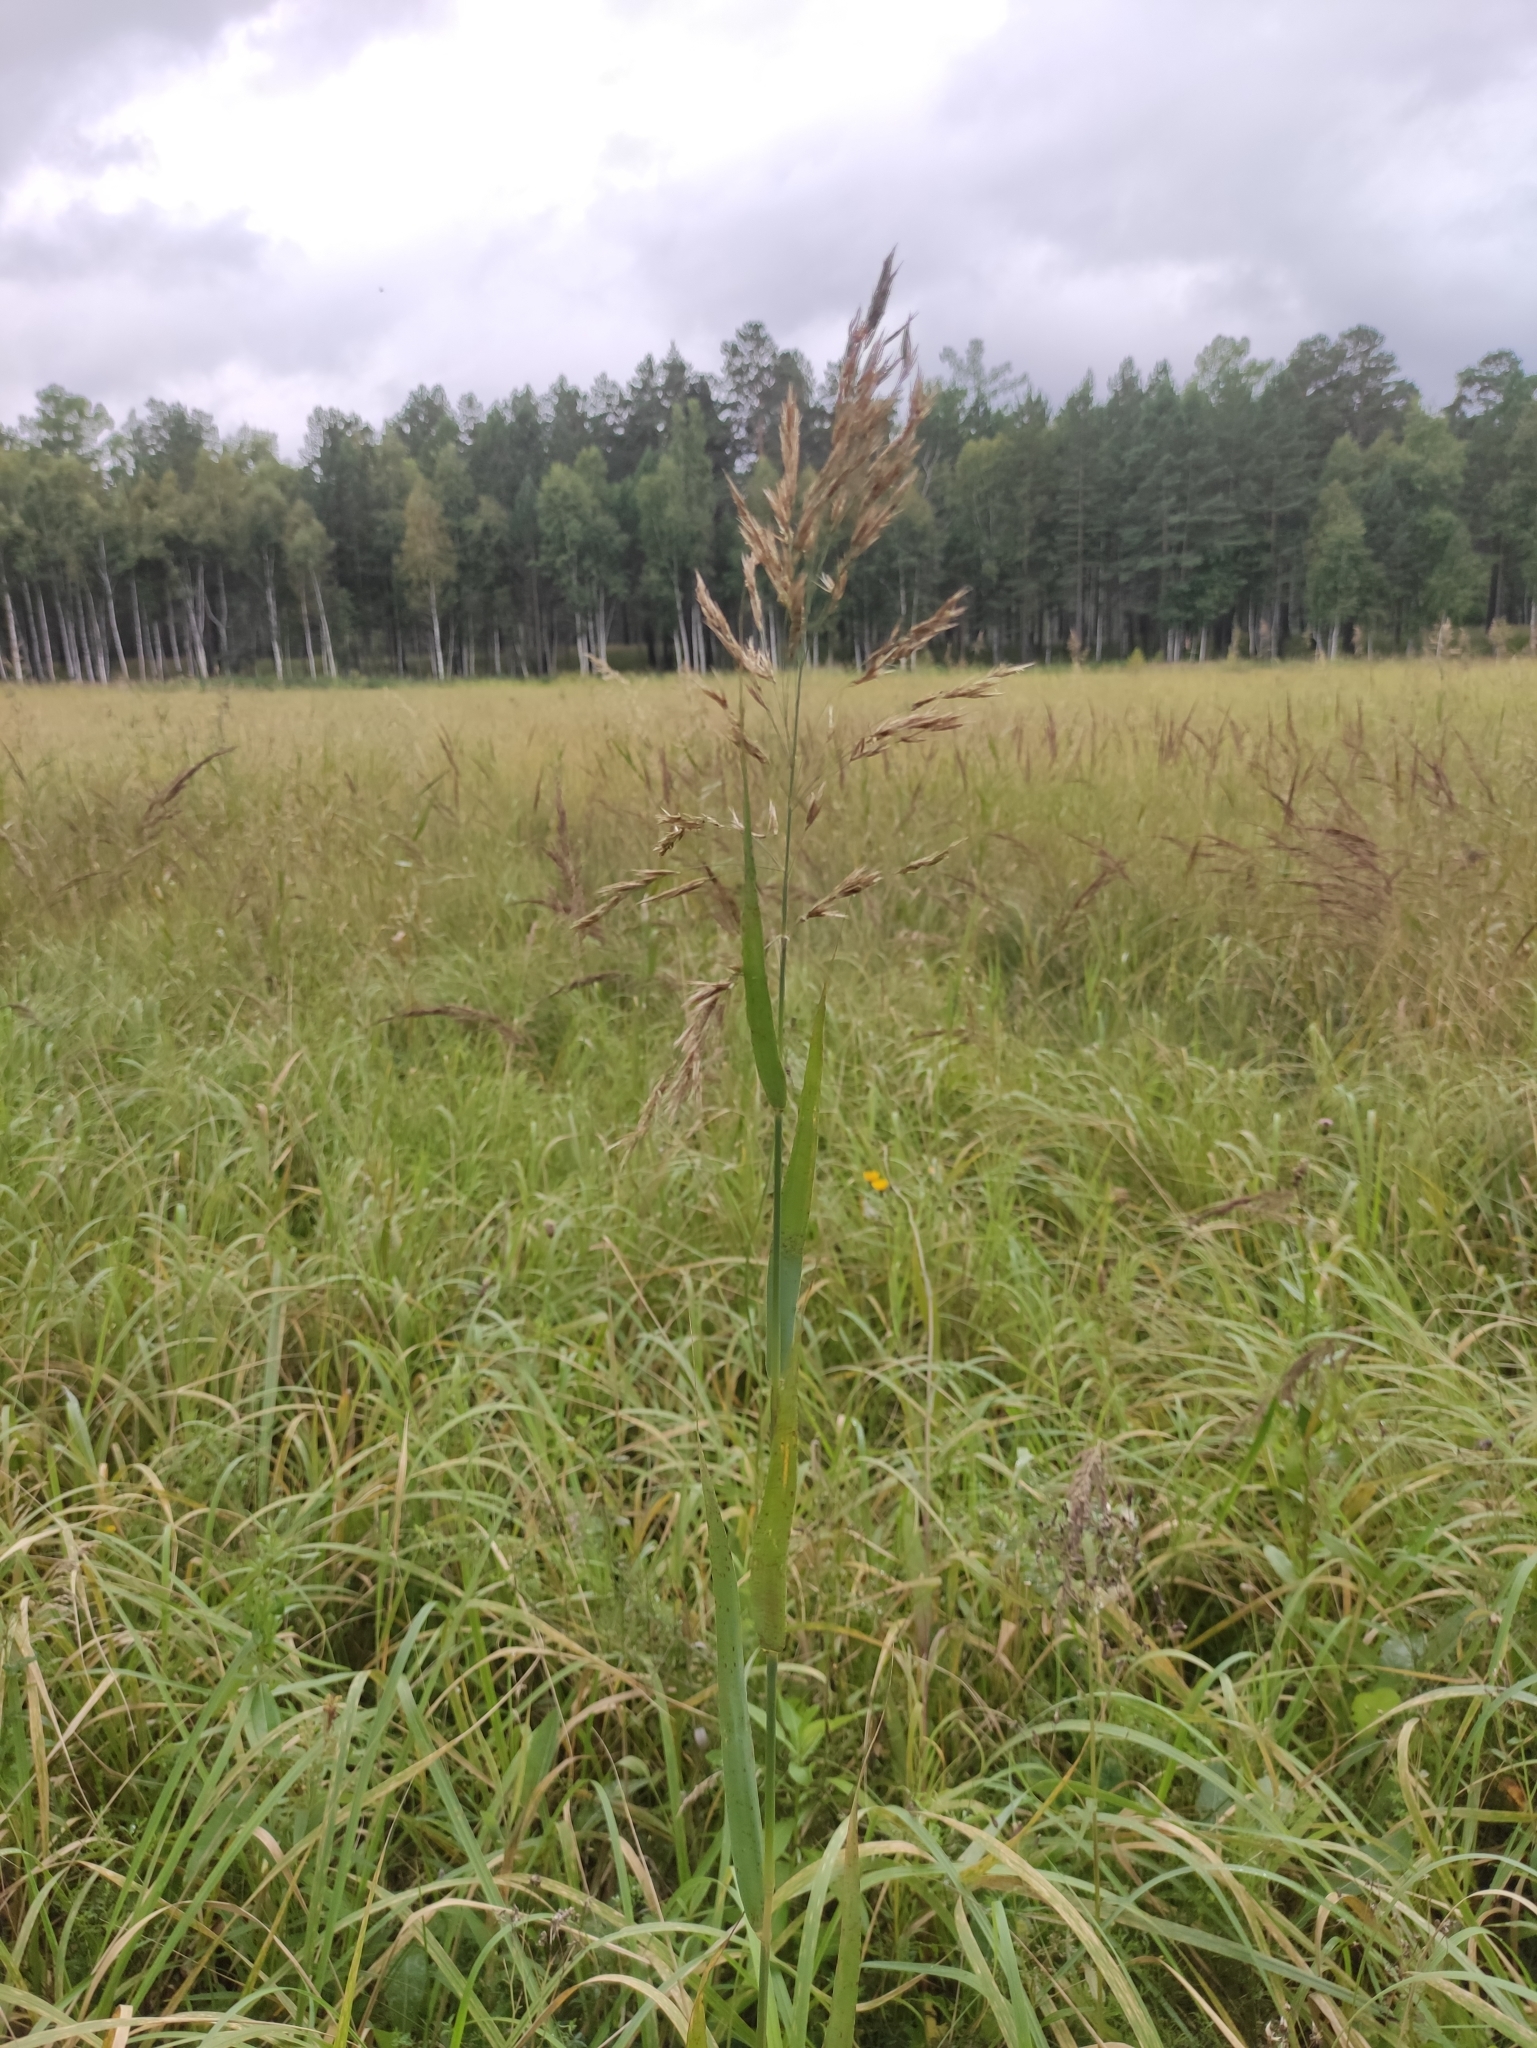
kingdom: Plantae
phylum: Tracheophyta
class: Liliopsida
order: Poales
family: Poaceae
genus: Phragmites
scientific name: Phragmites australis
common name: Common reed
